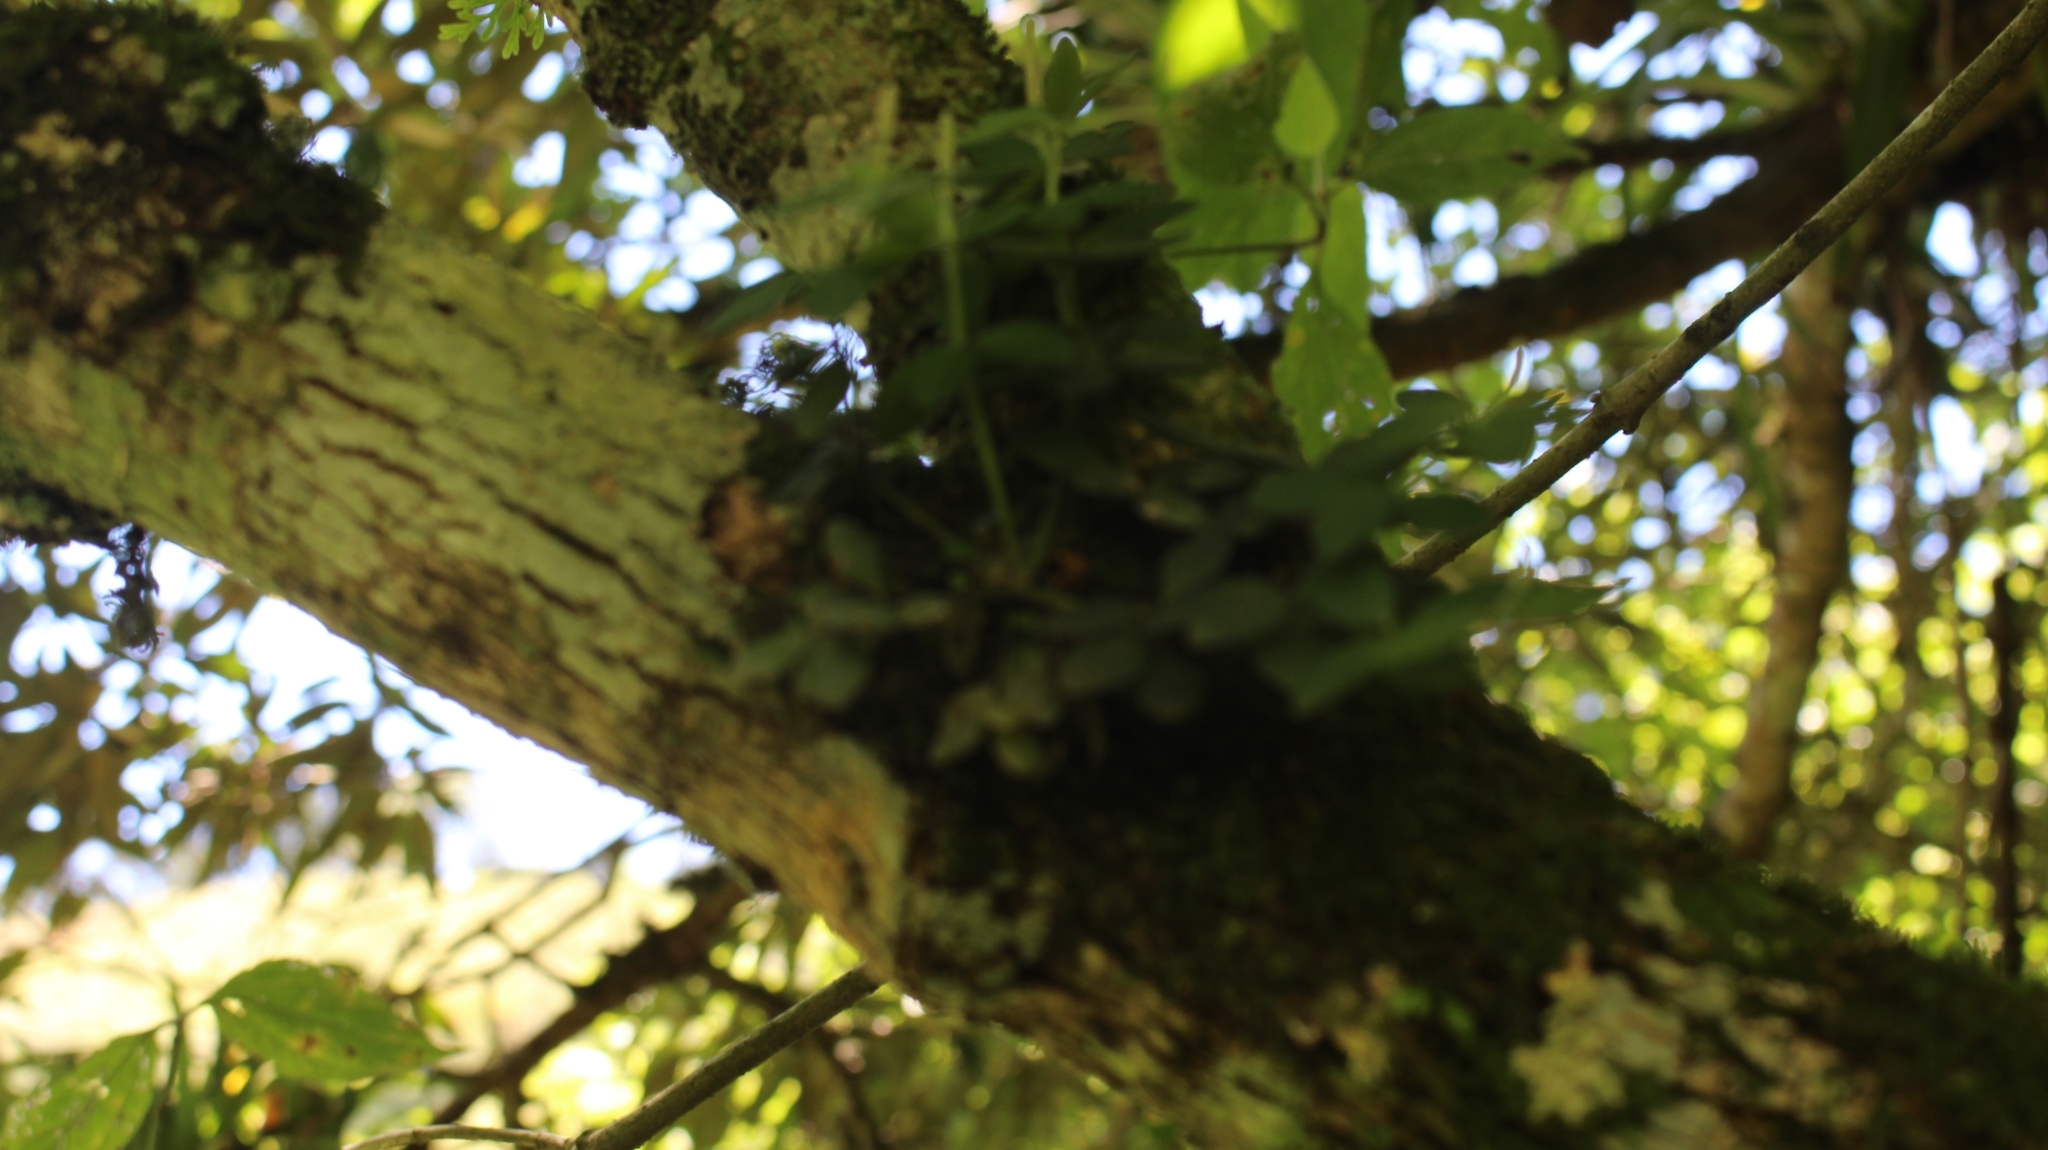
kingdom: Plantae
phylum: Tracheophyta
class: Magnoliopsida
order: Piperales
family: Piperaceae
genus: Peperomia
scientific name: Peperomia tetraphylla
